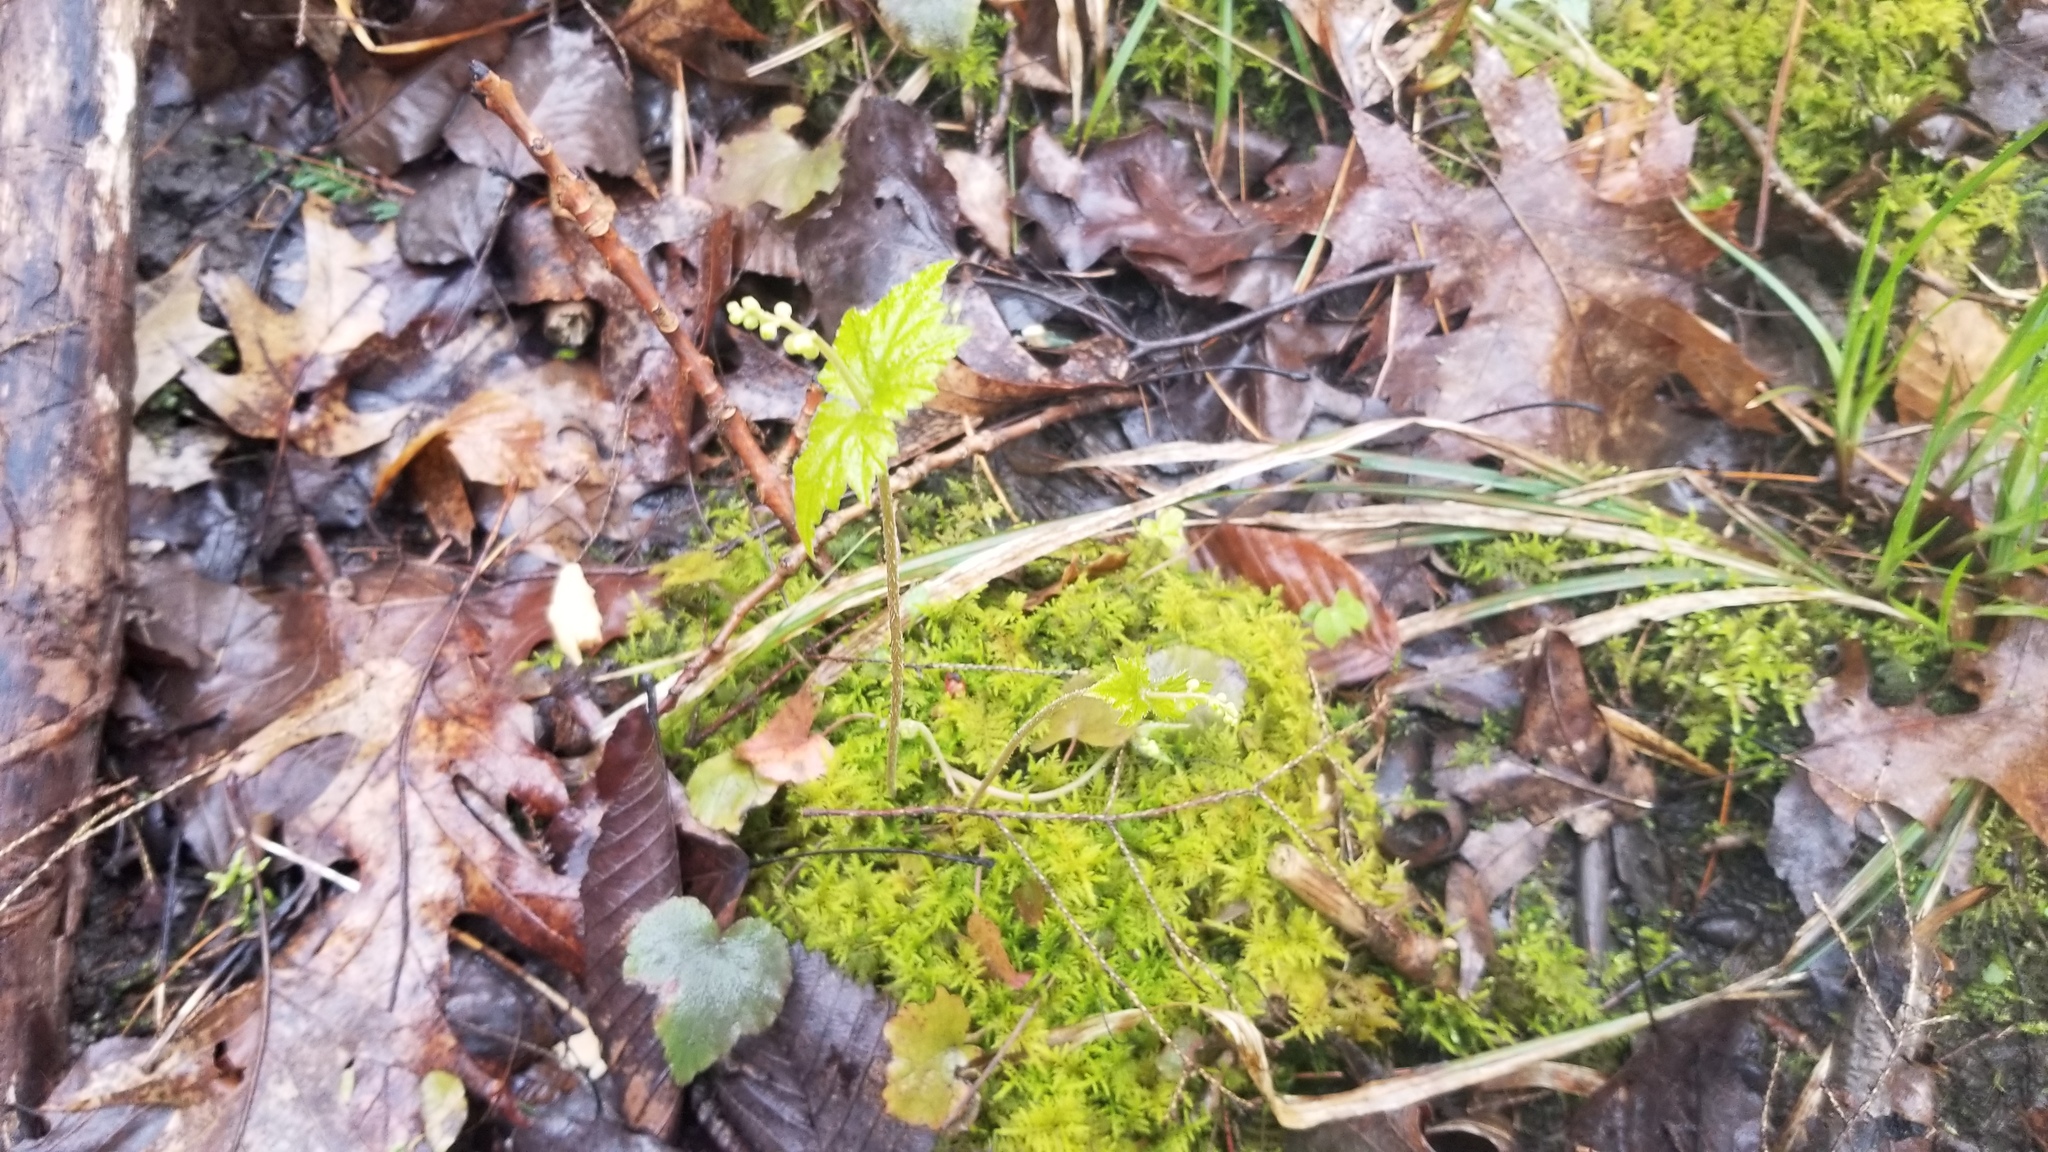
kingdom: Plantae
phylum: Tracheophyta
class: Magnoliopsida
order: Saxifragales
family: Saxifragaceae
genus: Mitella
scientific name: Mitella diphylla
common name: Coolwort
